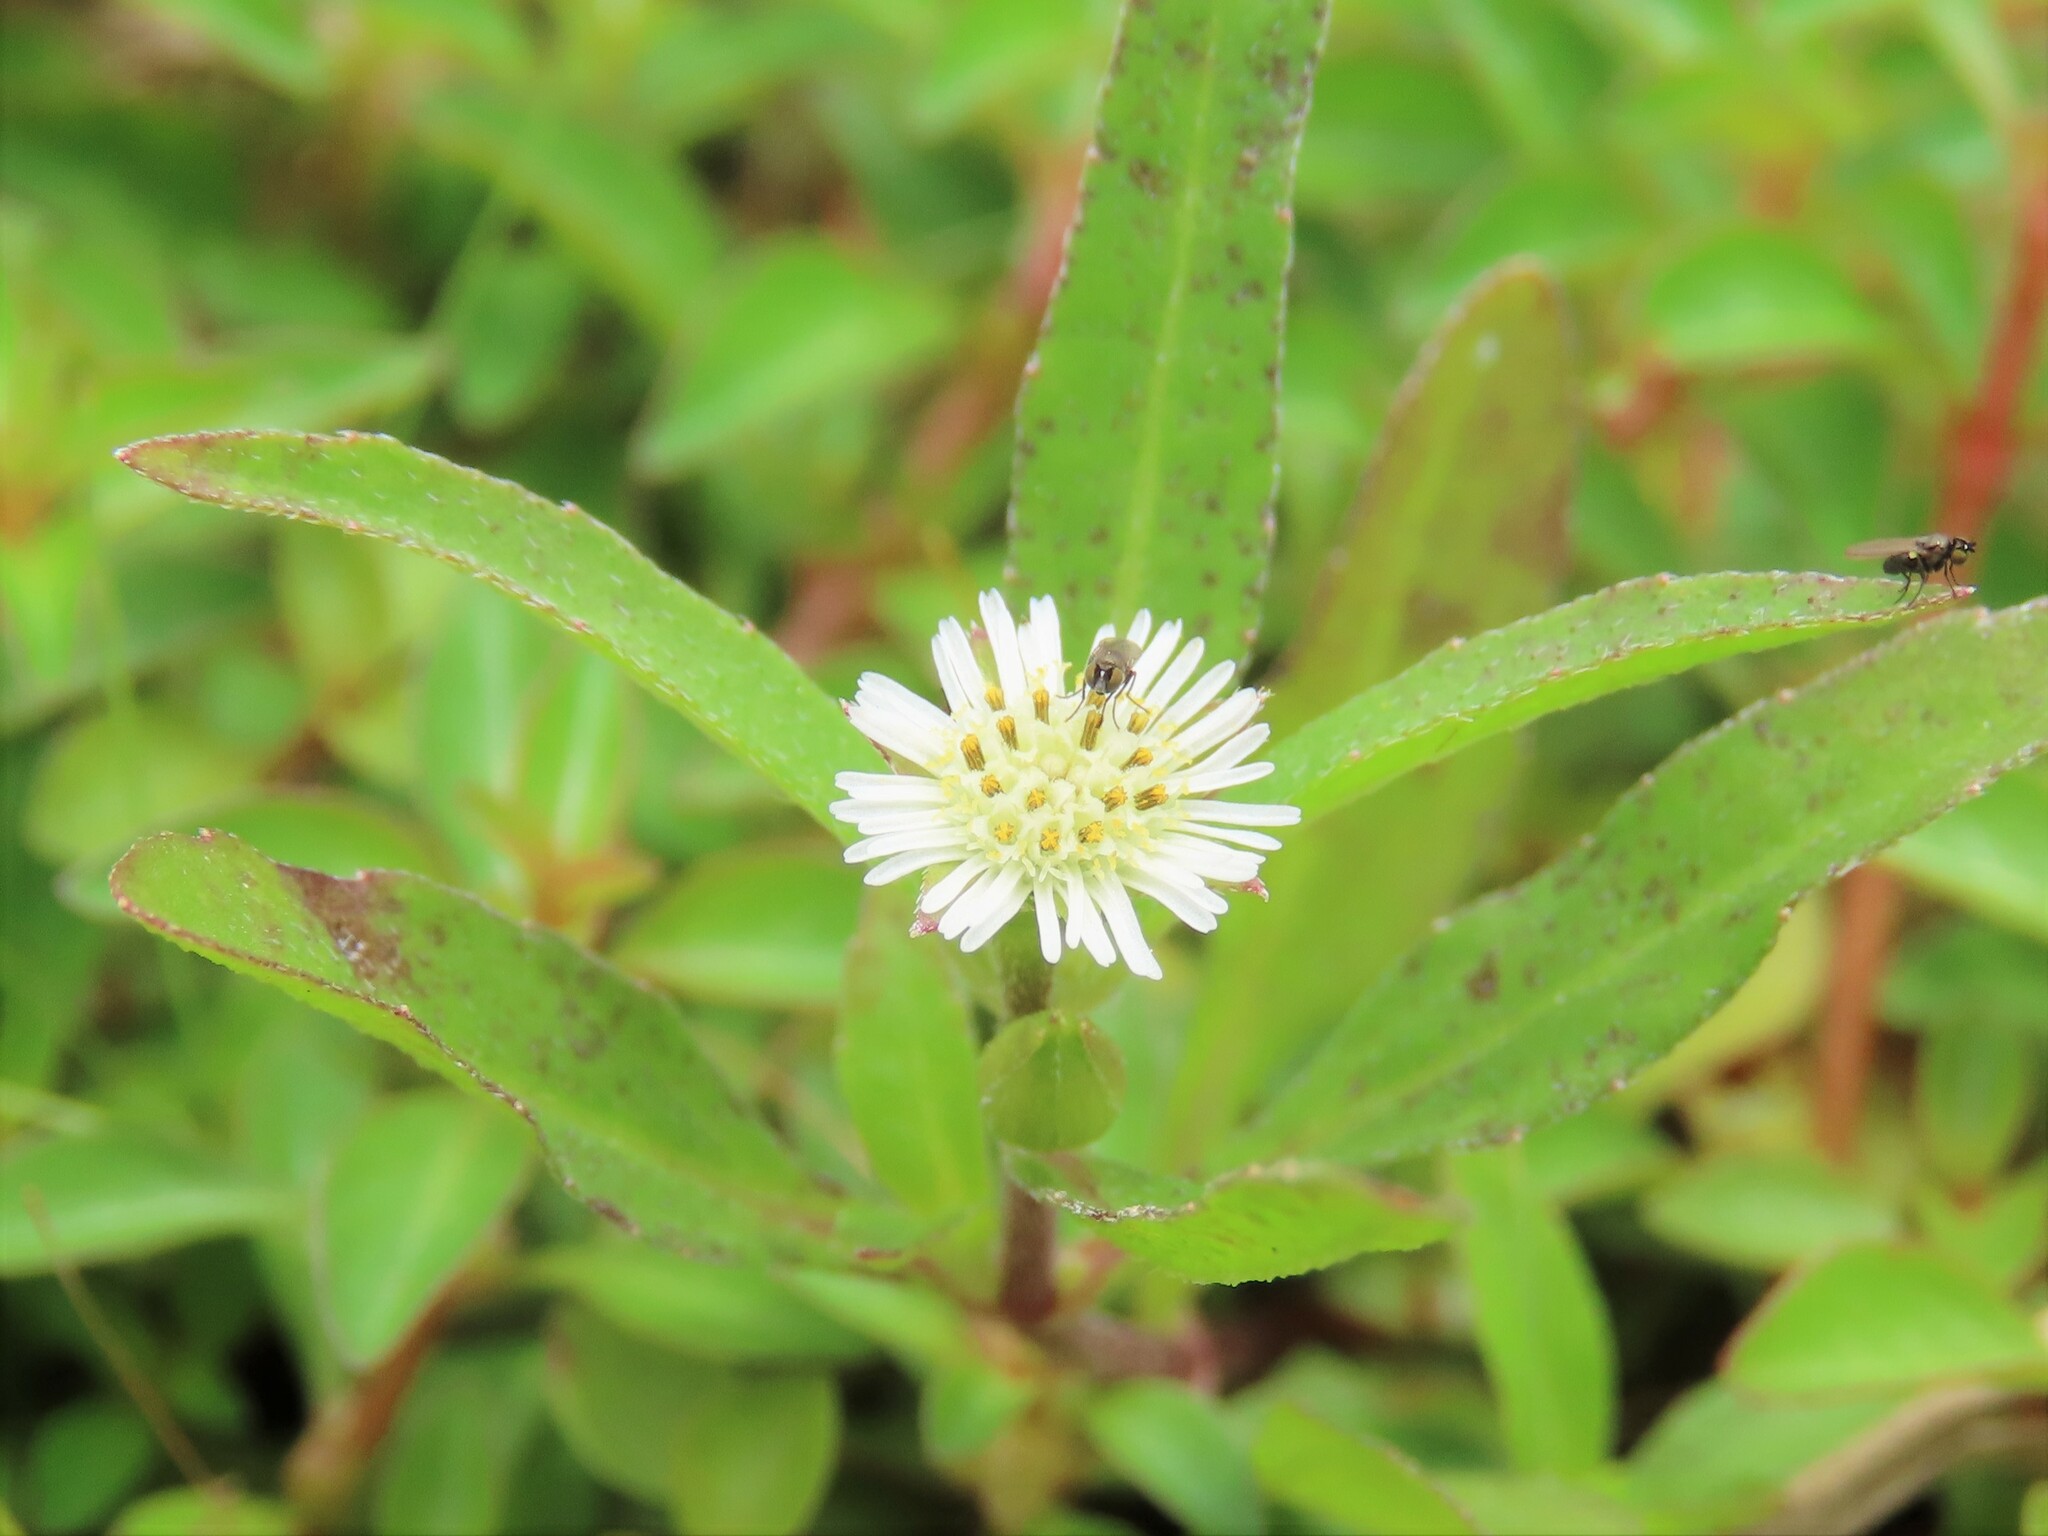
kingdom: Plantae
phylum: Tracheophyta
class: Magnoliopsida
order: Asterales
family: Asteraceae
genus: Eclipta
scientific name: Eclipta prostrata
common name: False daisy
